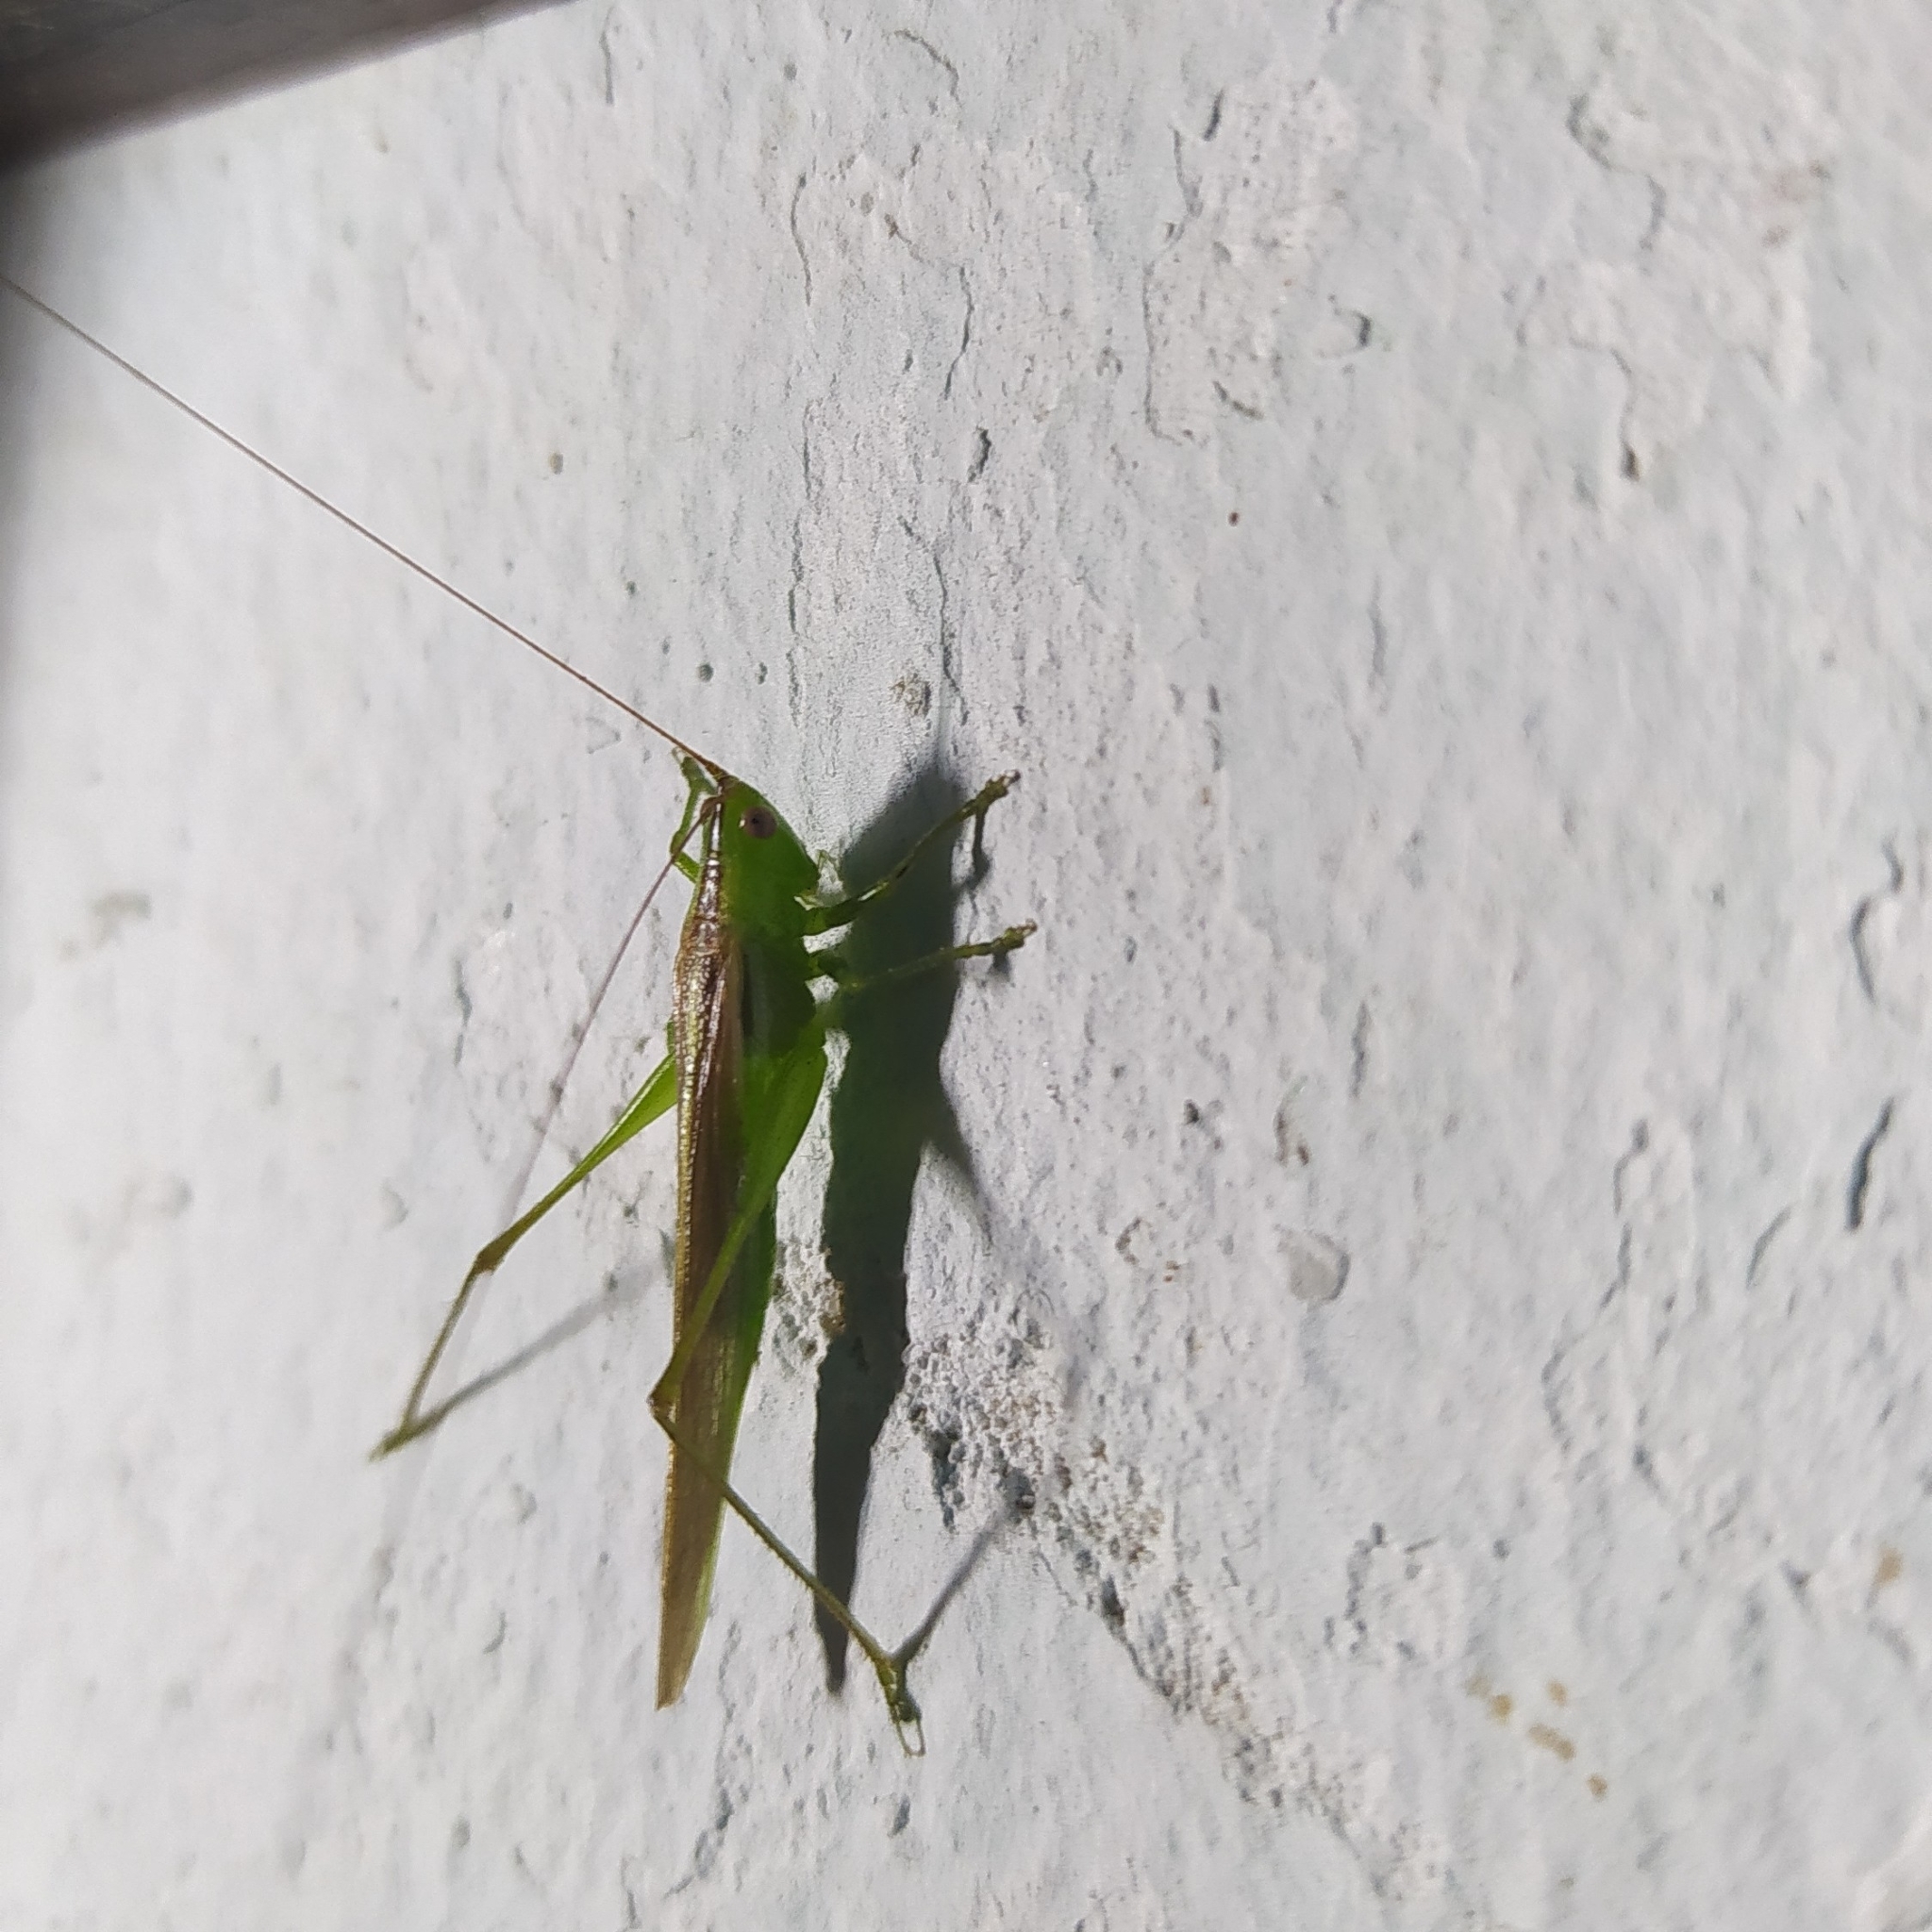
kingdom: Animalia
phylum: Arthropoda
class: Insecta
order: Orthoptera
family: Tettigoniidae
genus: Conocephalus
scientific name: Conocephalus longipes
